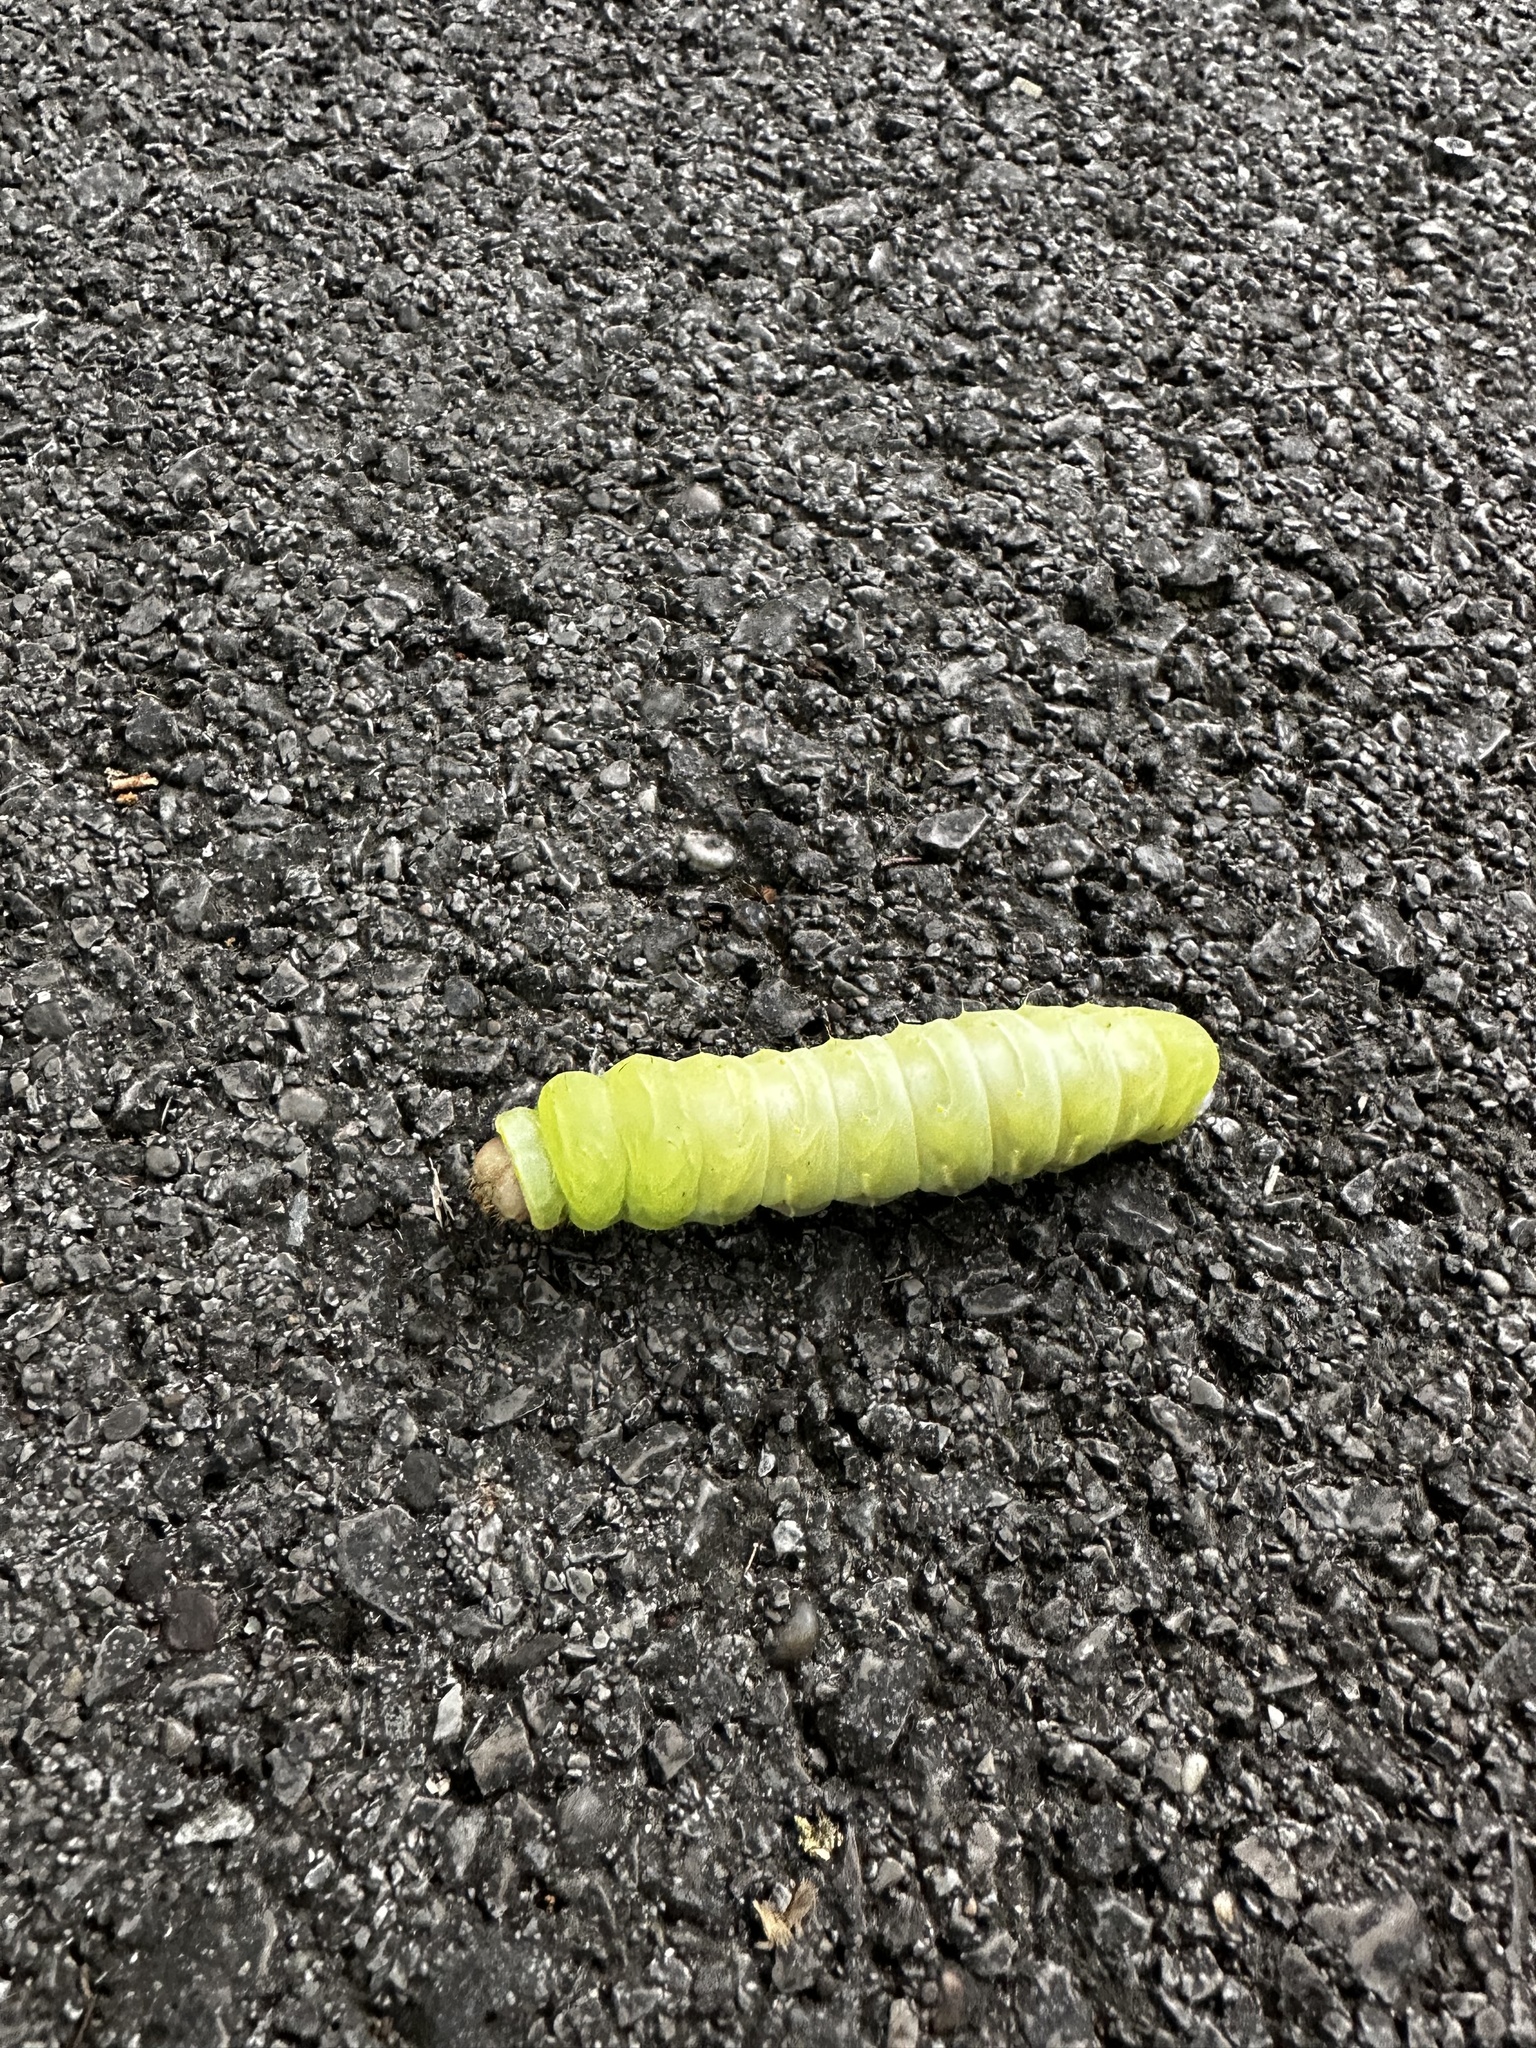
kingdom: Animalia
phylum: Arthropoda
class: Insecta
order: Lepidoptera
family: Saturniidae
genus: Antheraea
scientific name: Antheraea polyphemus
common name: Polyphemus moth
